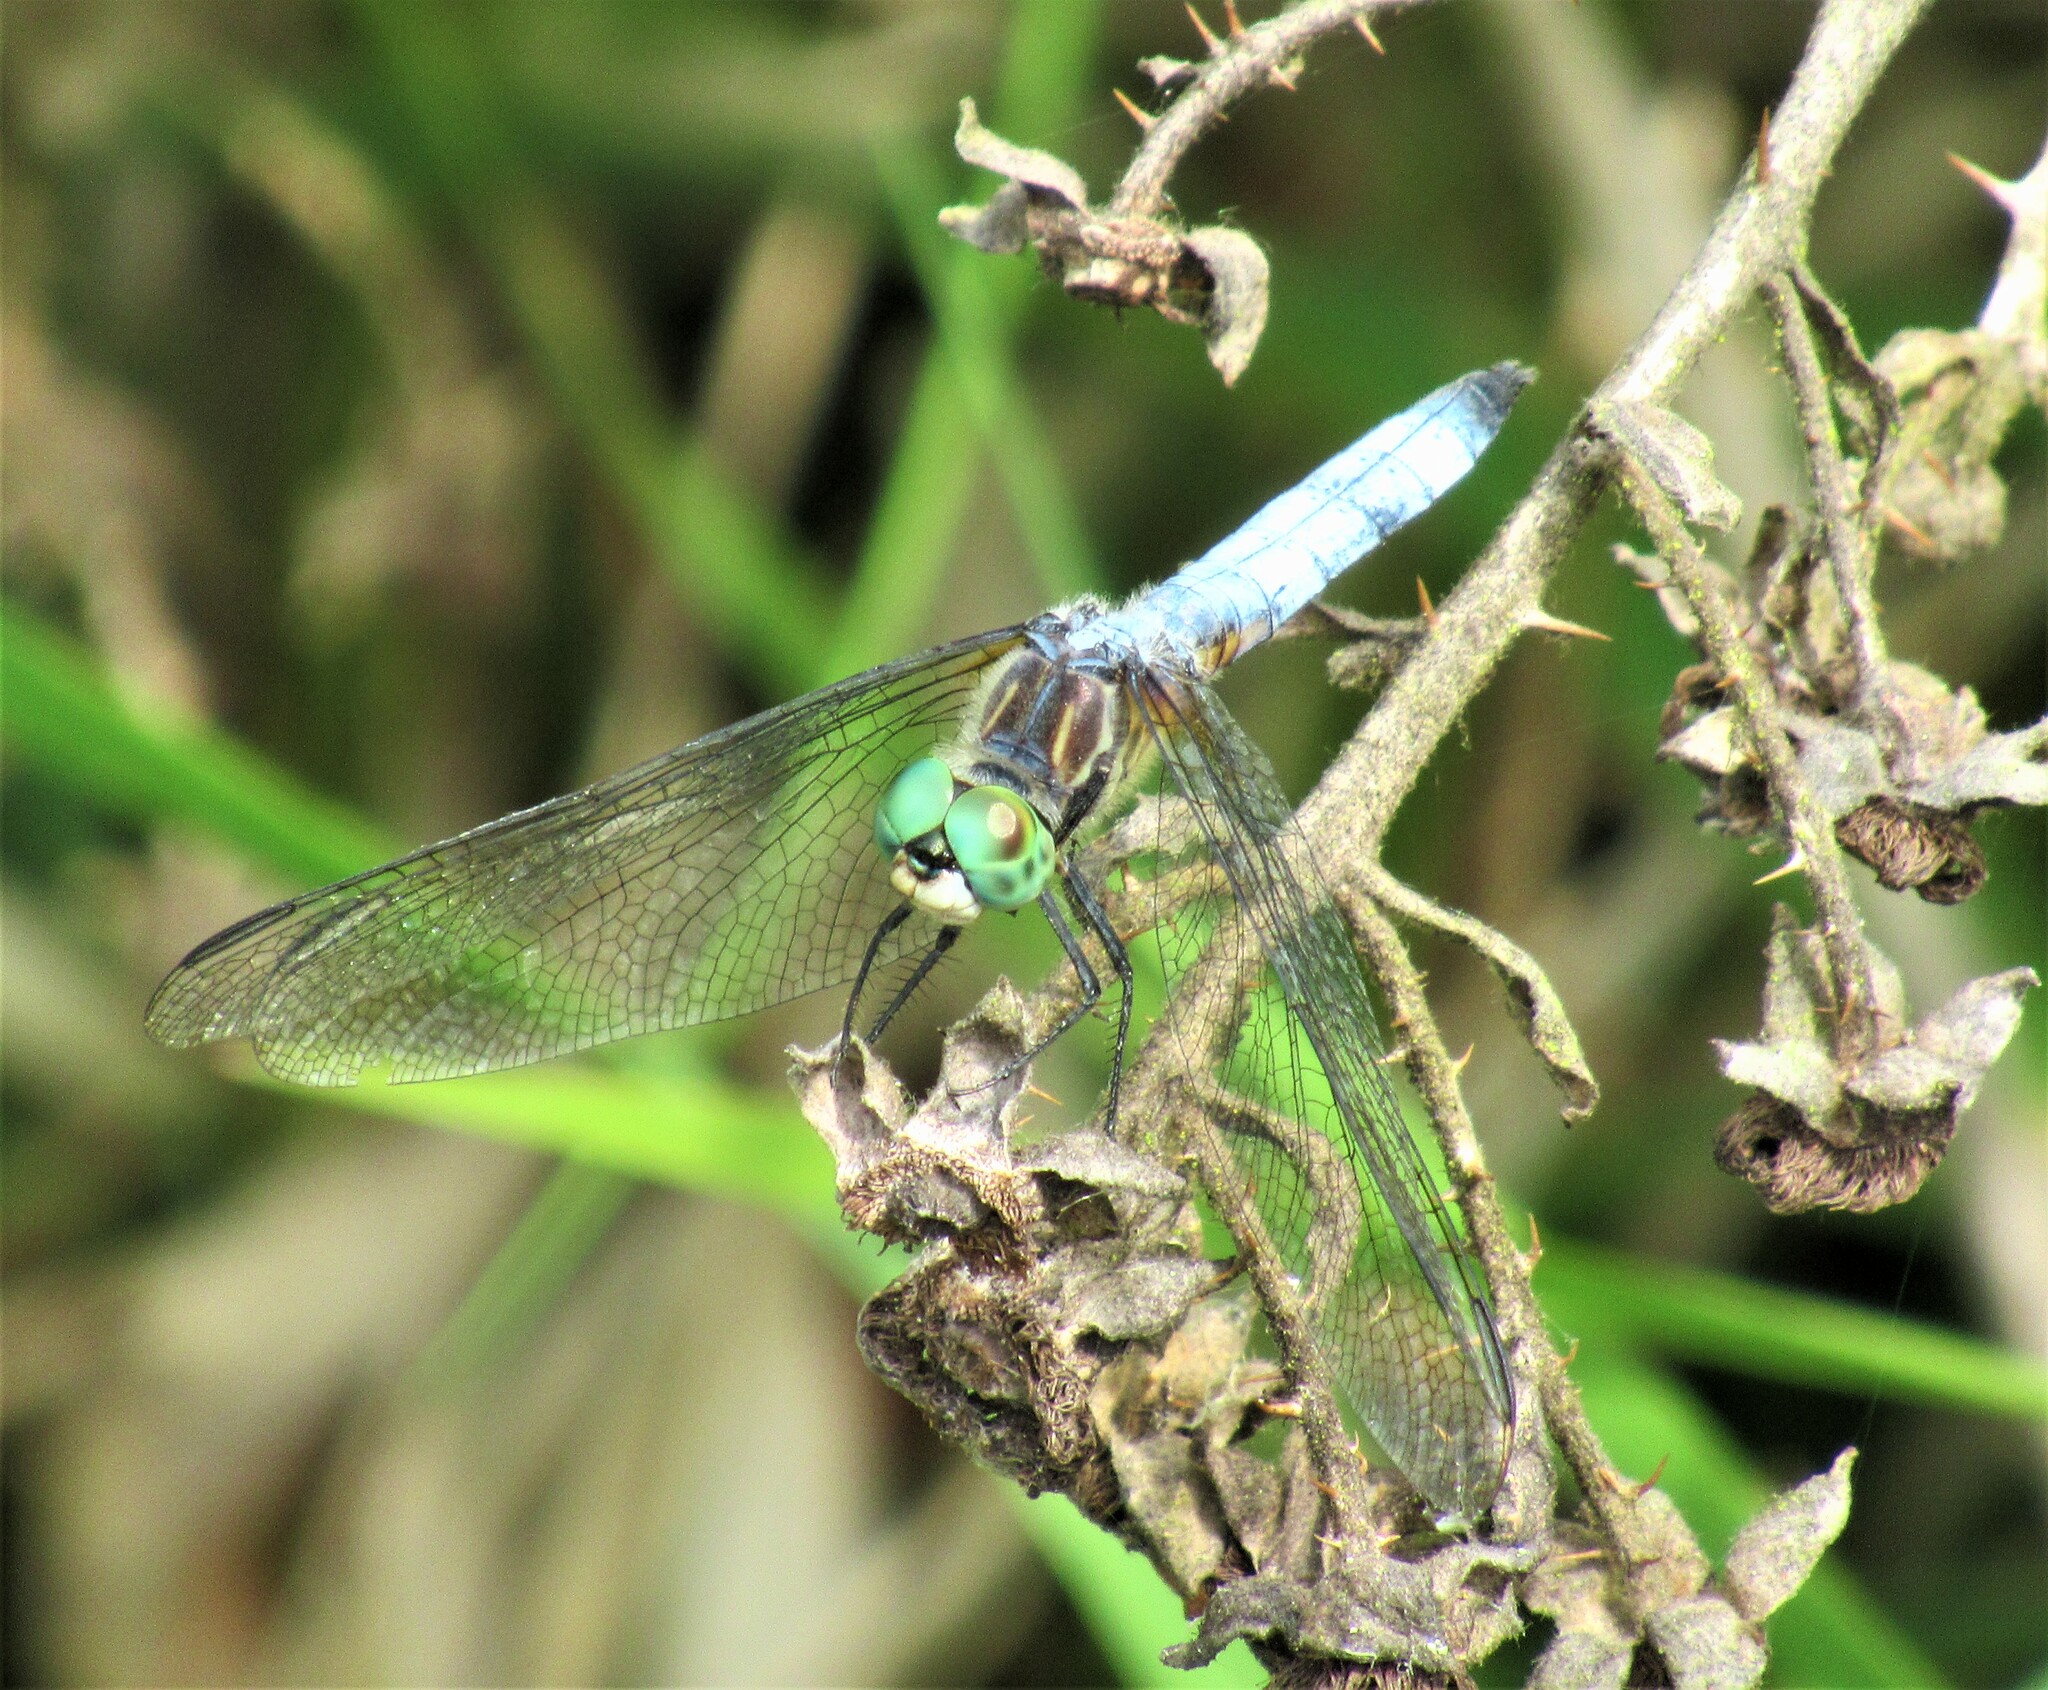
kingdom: Animalia
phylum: Arthropoda
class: Insecta
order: Odonata
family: Libellulidae
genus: Pachydiplax
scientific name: Pachydiplax longipennis
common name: Blue dasher
